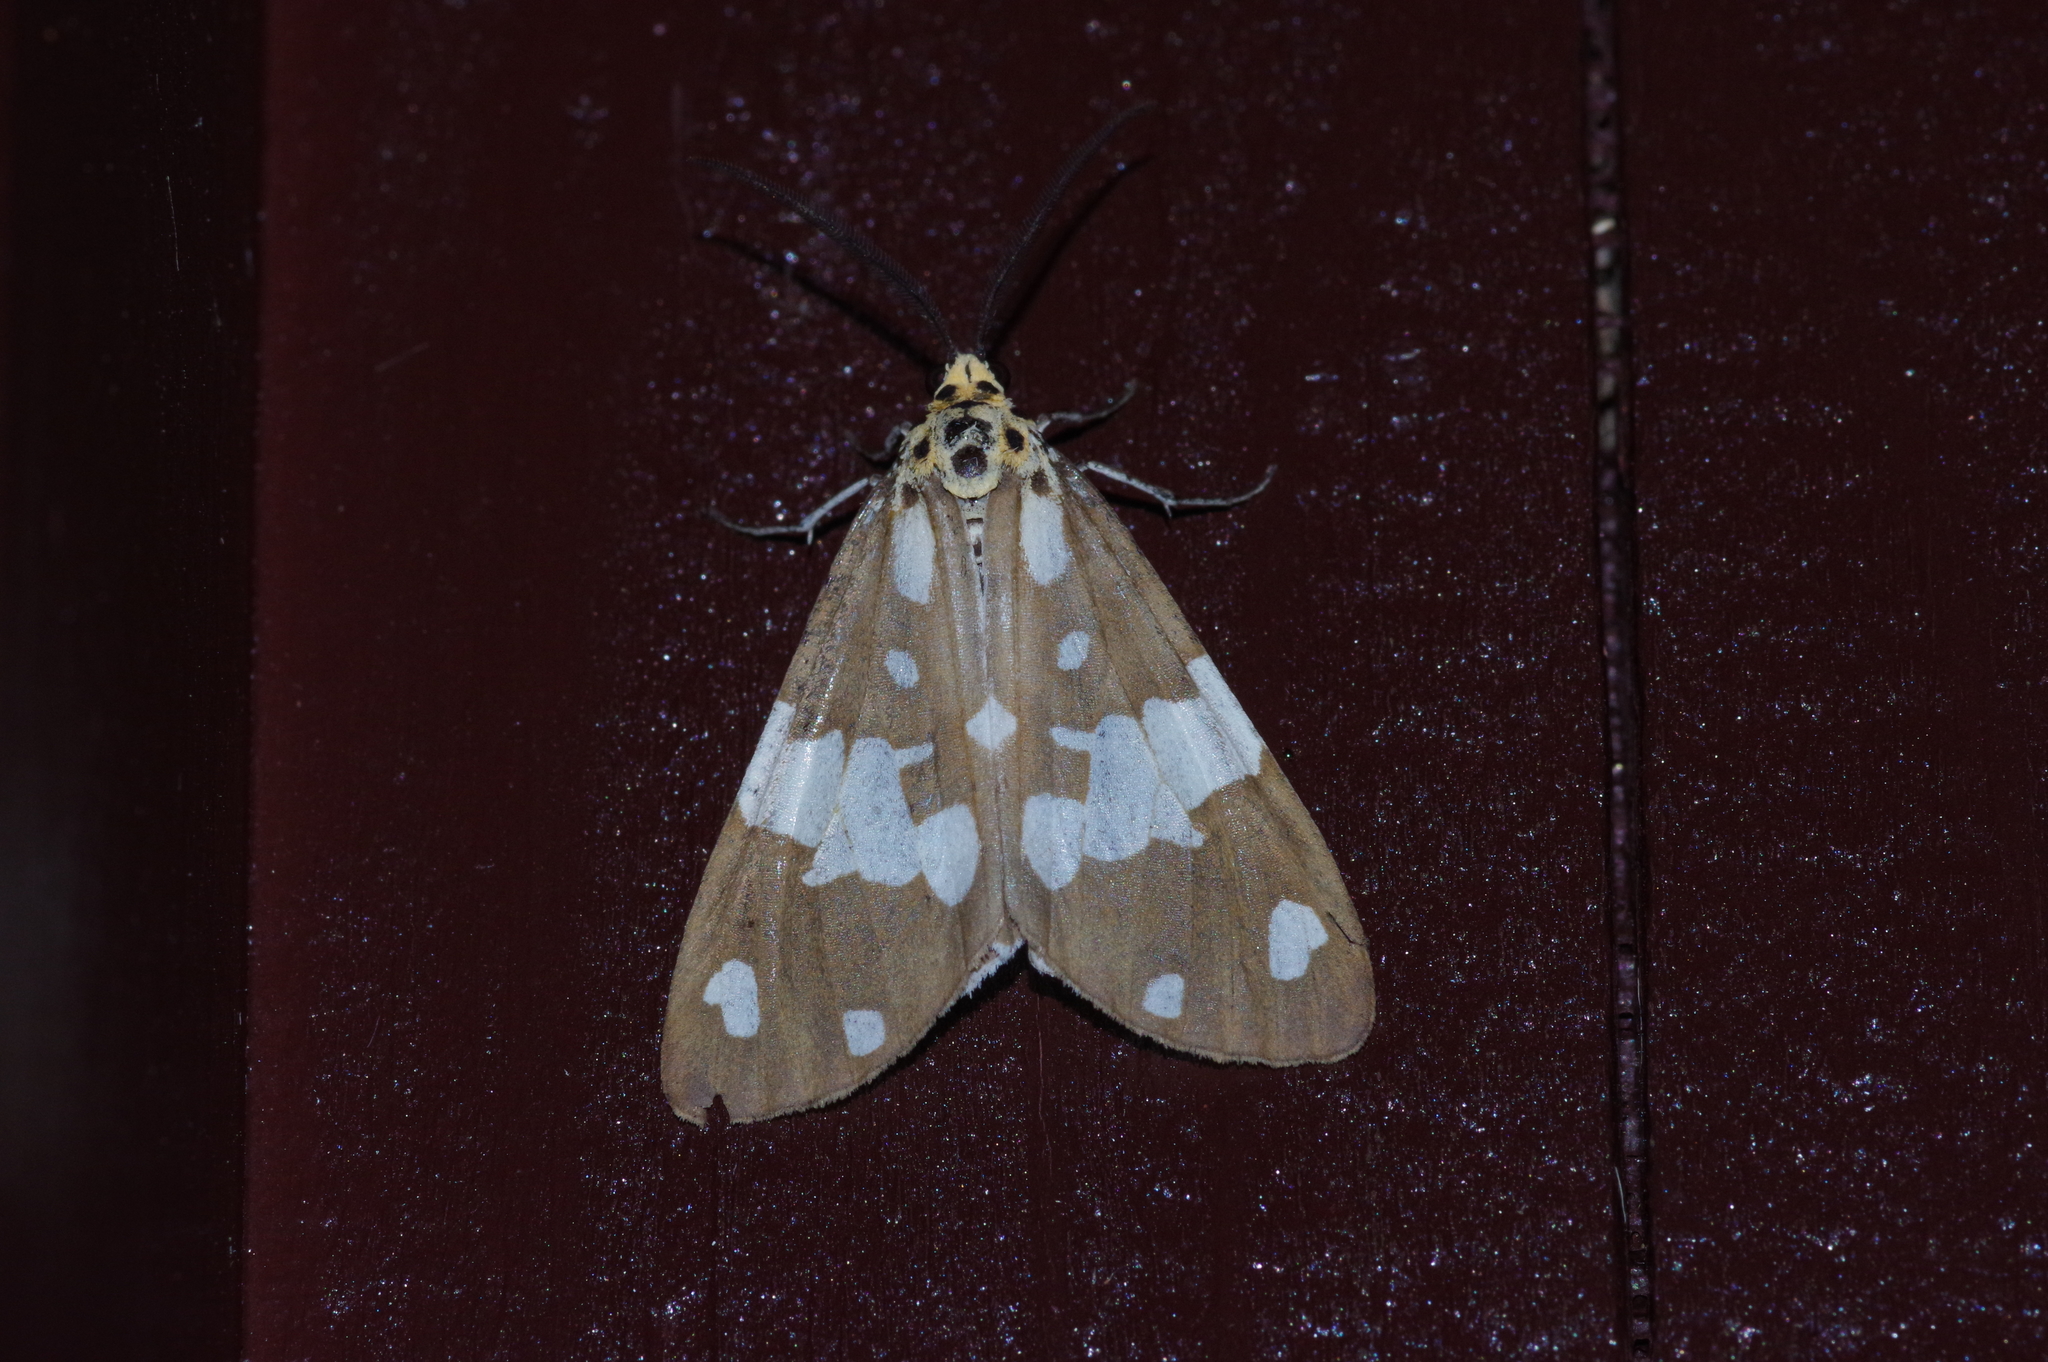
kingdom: Animalia
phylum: Arthropoda
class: Insecta
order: Lepidoptera
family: Erebidae
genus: Utetheisa
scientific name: Utetheisa inconstans
